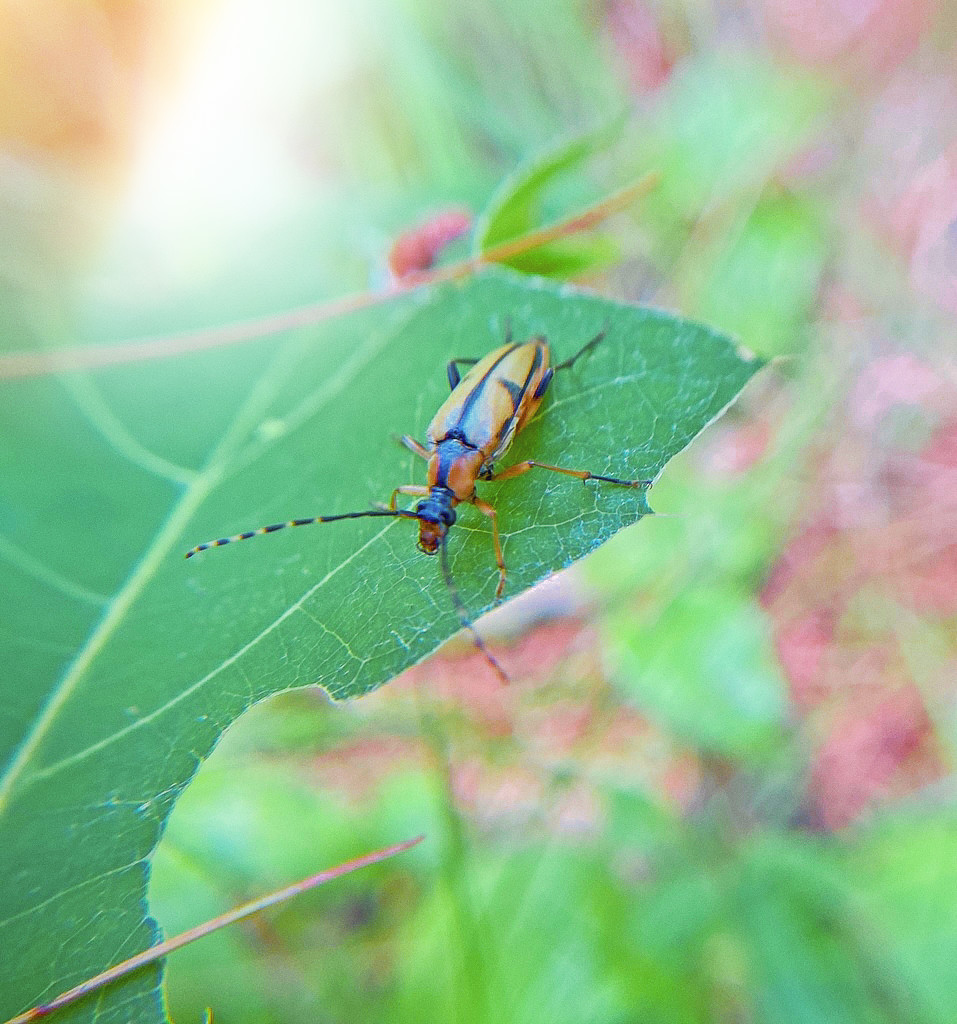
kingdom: Animalia
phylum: Arthropoda
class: Insecta
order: Coleoptera
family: Cerambycidae
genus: Etorofus
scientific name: Etorofus
